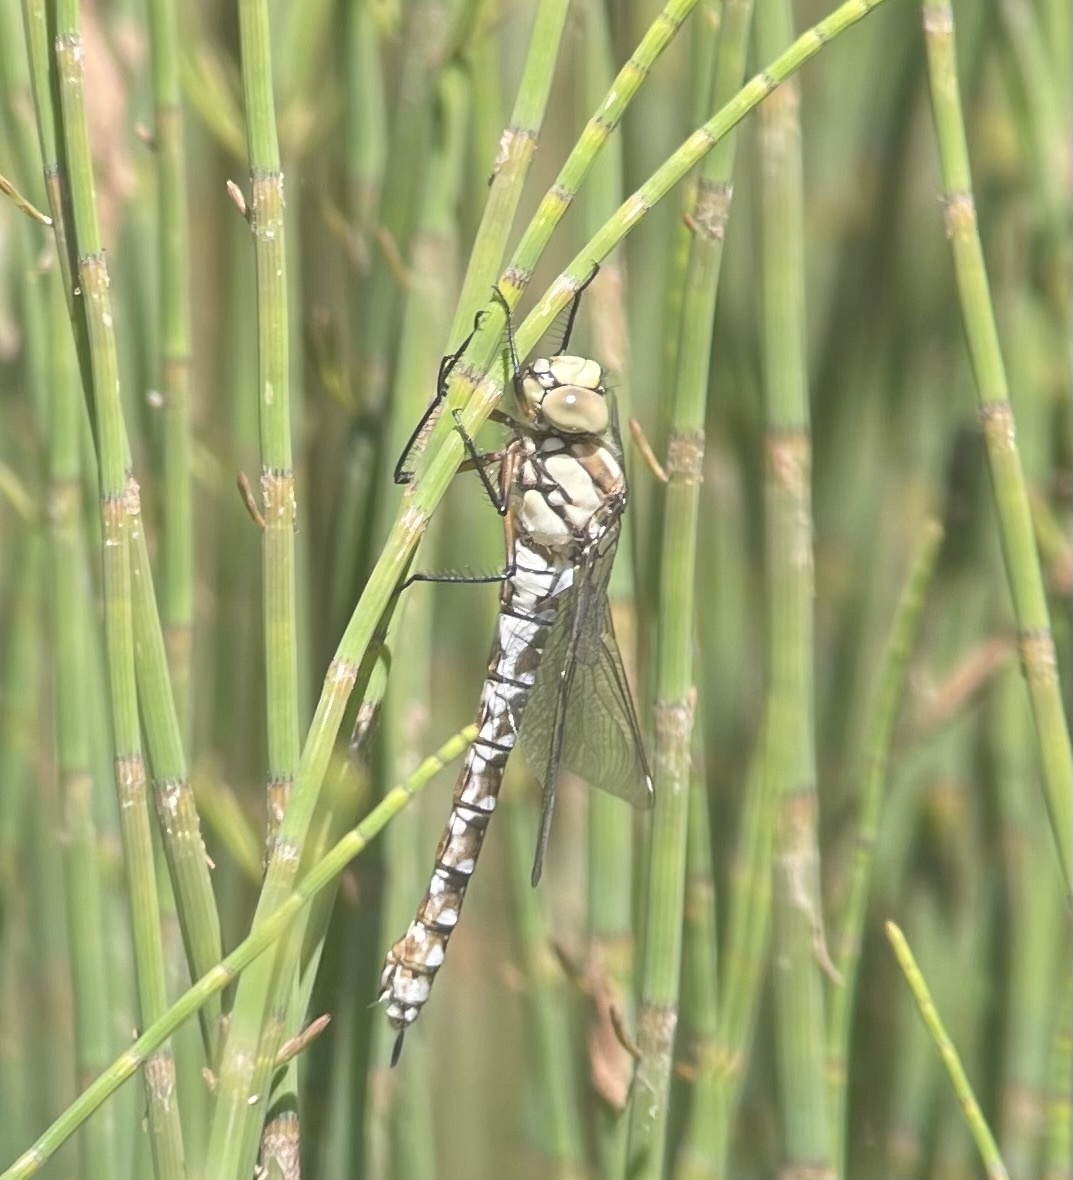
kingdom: Animalia
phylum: Arthropoda
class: Insecta
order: Odonata
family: Aeshnidae
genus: Aeshna
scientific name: Aeshna cyanea
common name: Southern hawker
